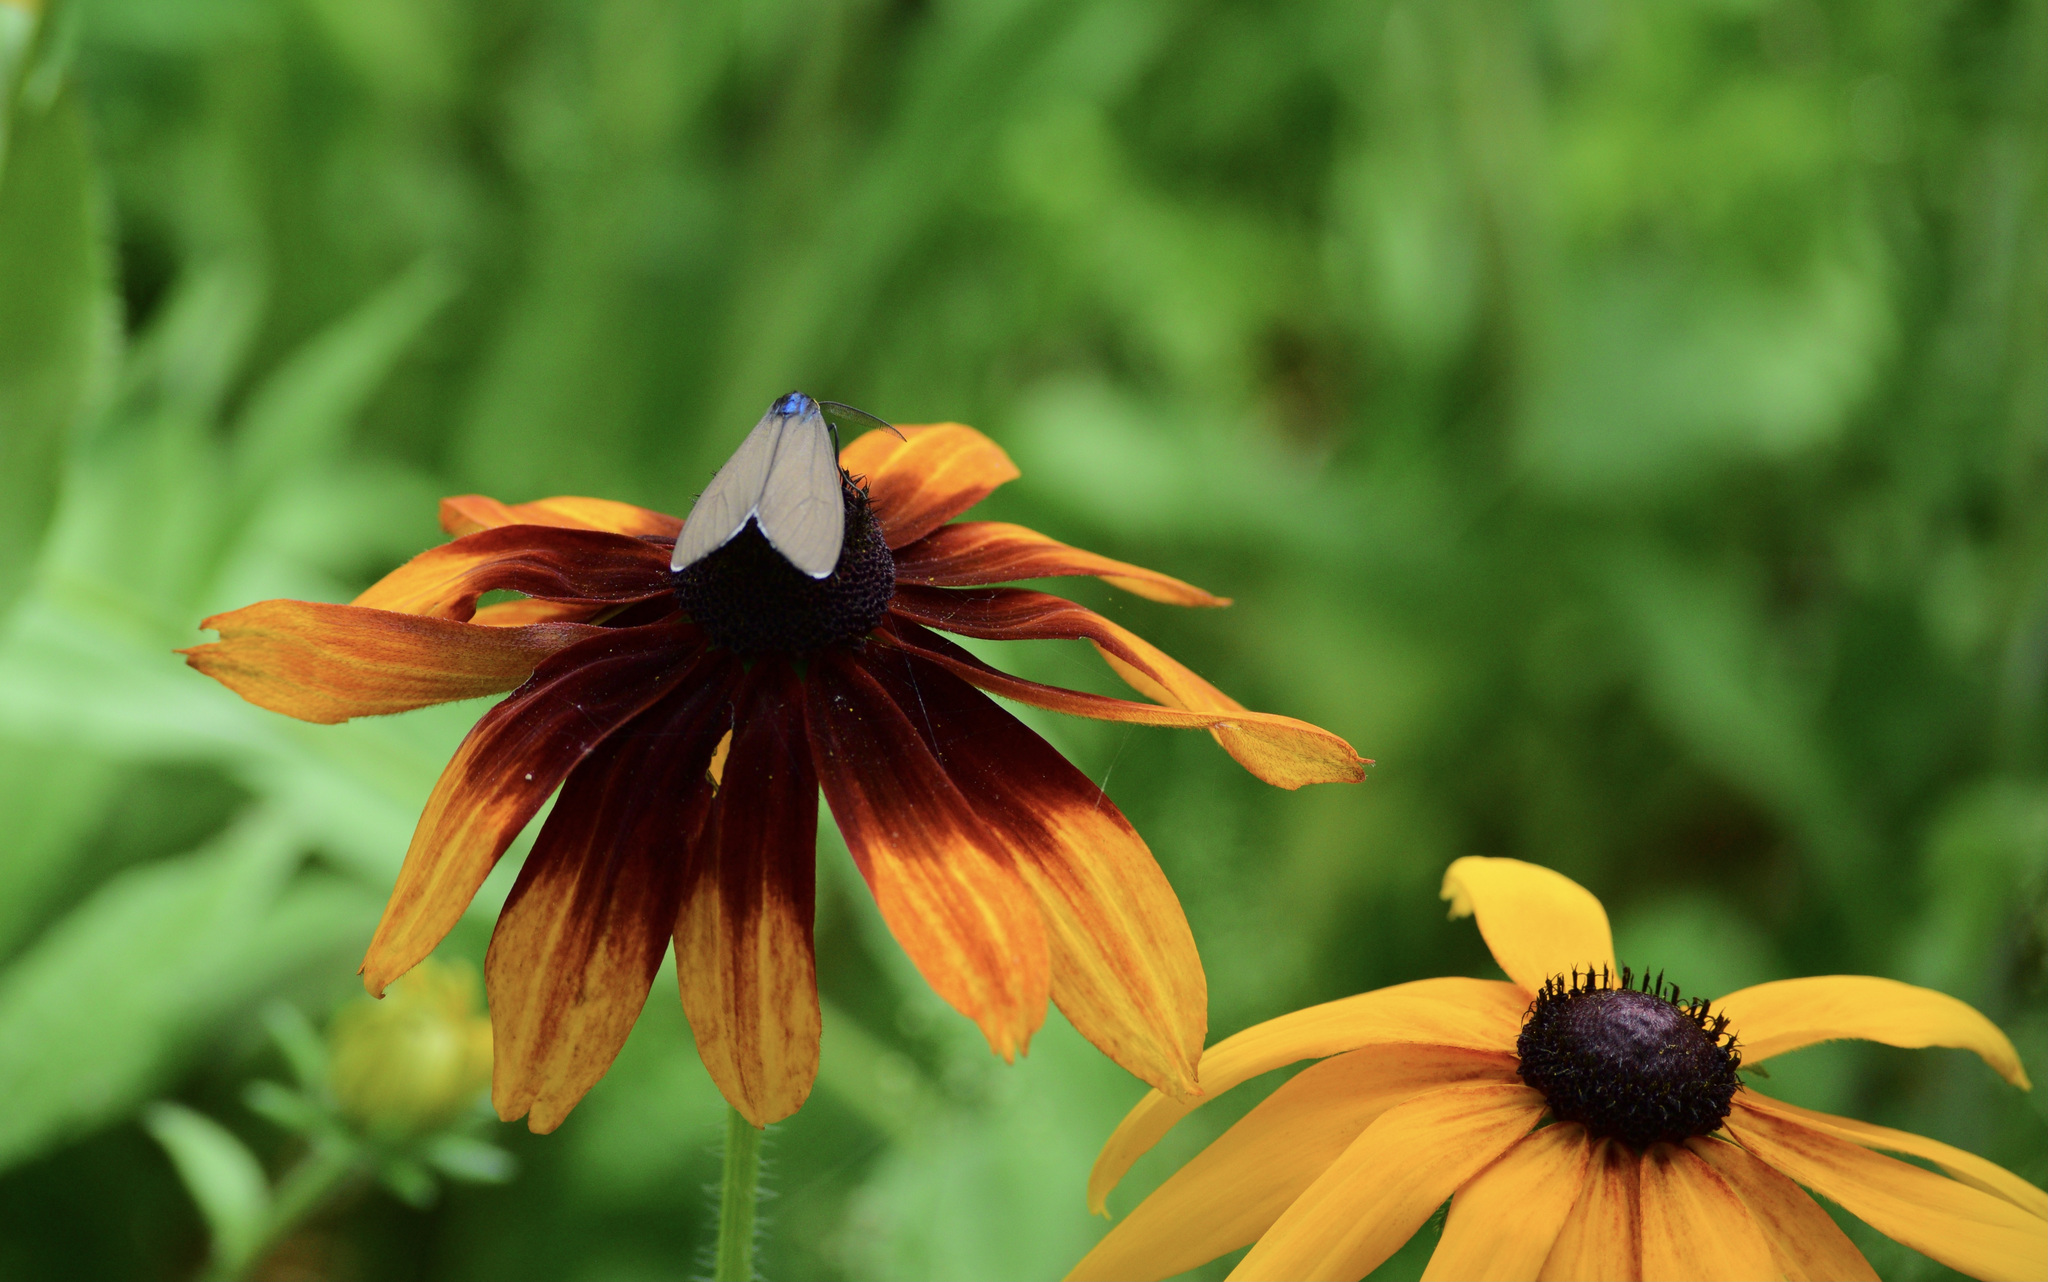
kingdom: Animalia
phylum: Arthropoda
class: Insecta
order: Lepidoptera
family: Erebidae
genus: Ctenucha
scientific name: Ctenucha virginica
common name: Virginia ctenucha moth
